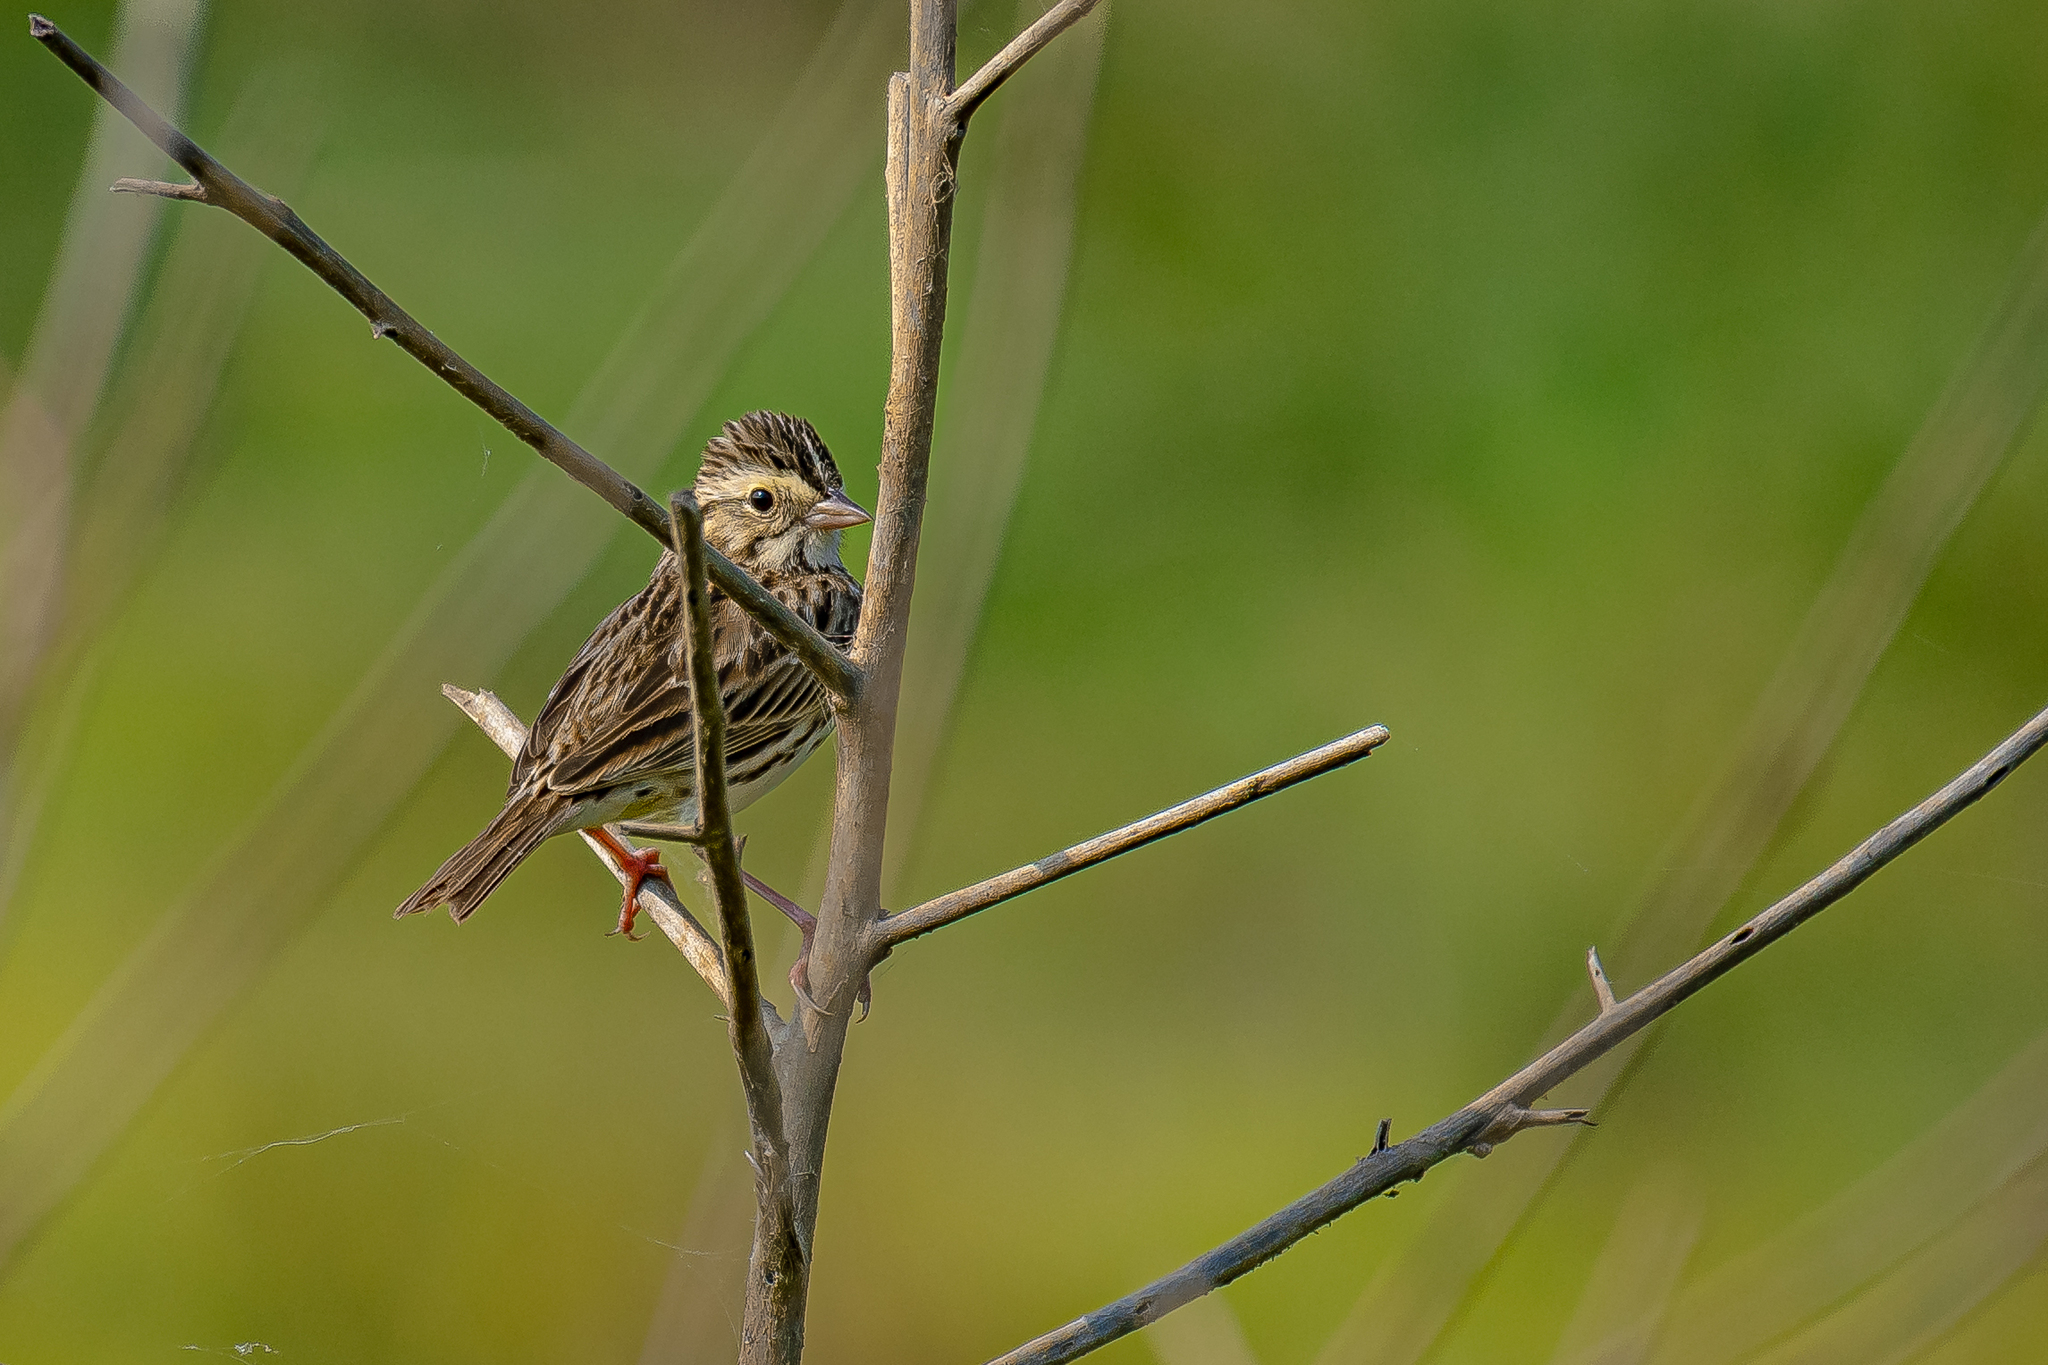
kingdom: Animalia
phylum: Chordata
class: Aves
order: Passeriformes
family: Passerellidae
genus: Passerculus
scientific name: Passerculus sandwichensis
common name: Savannah sparrow
